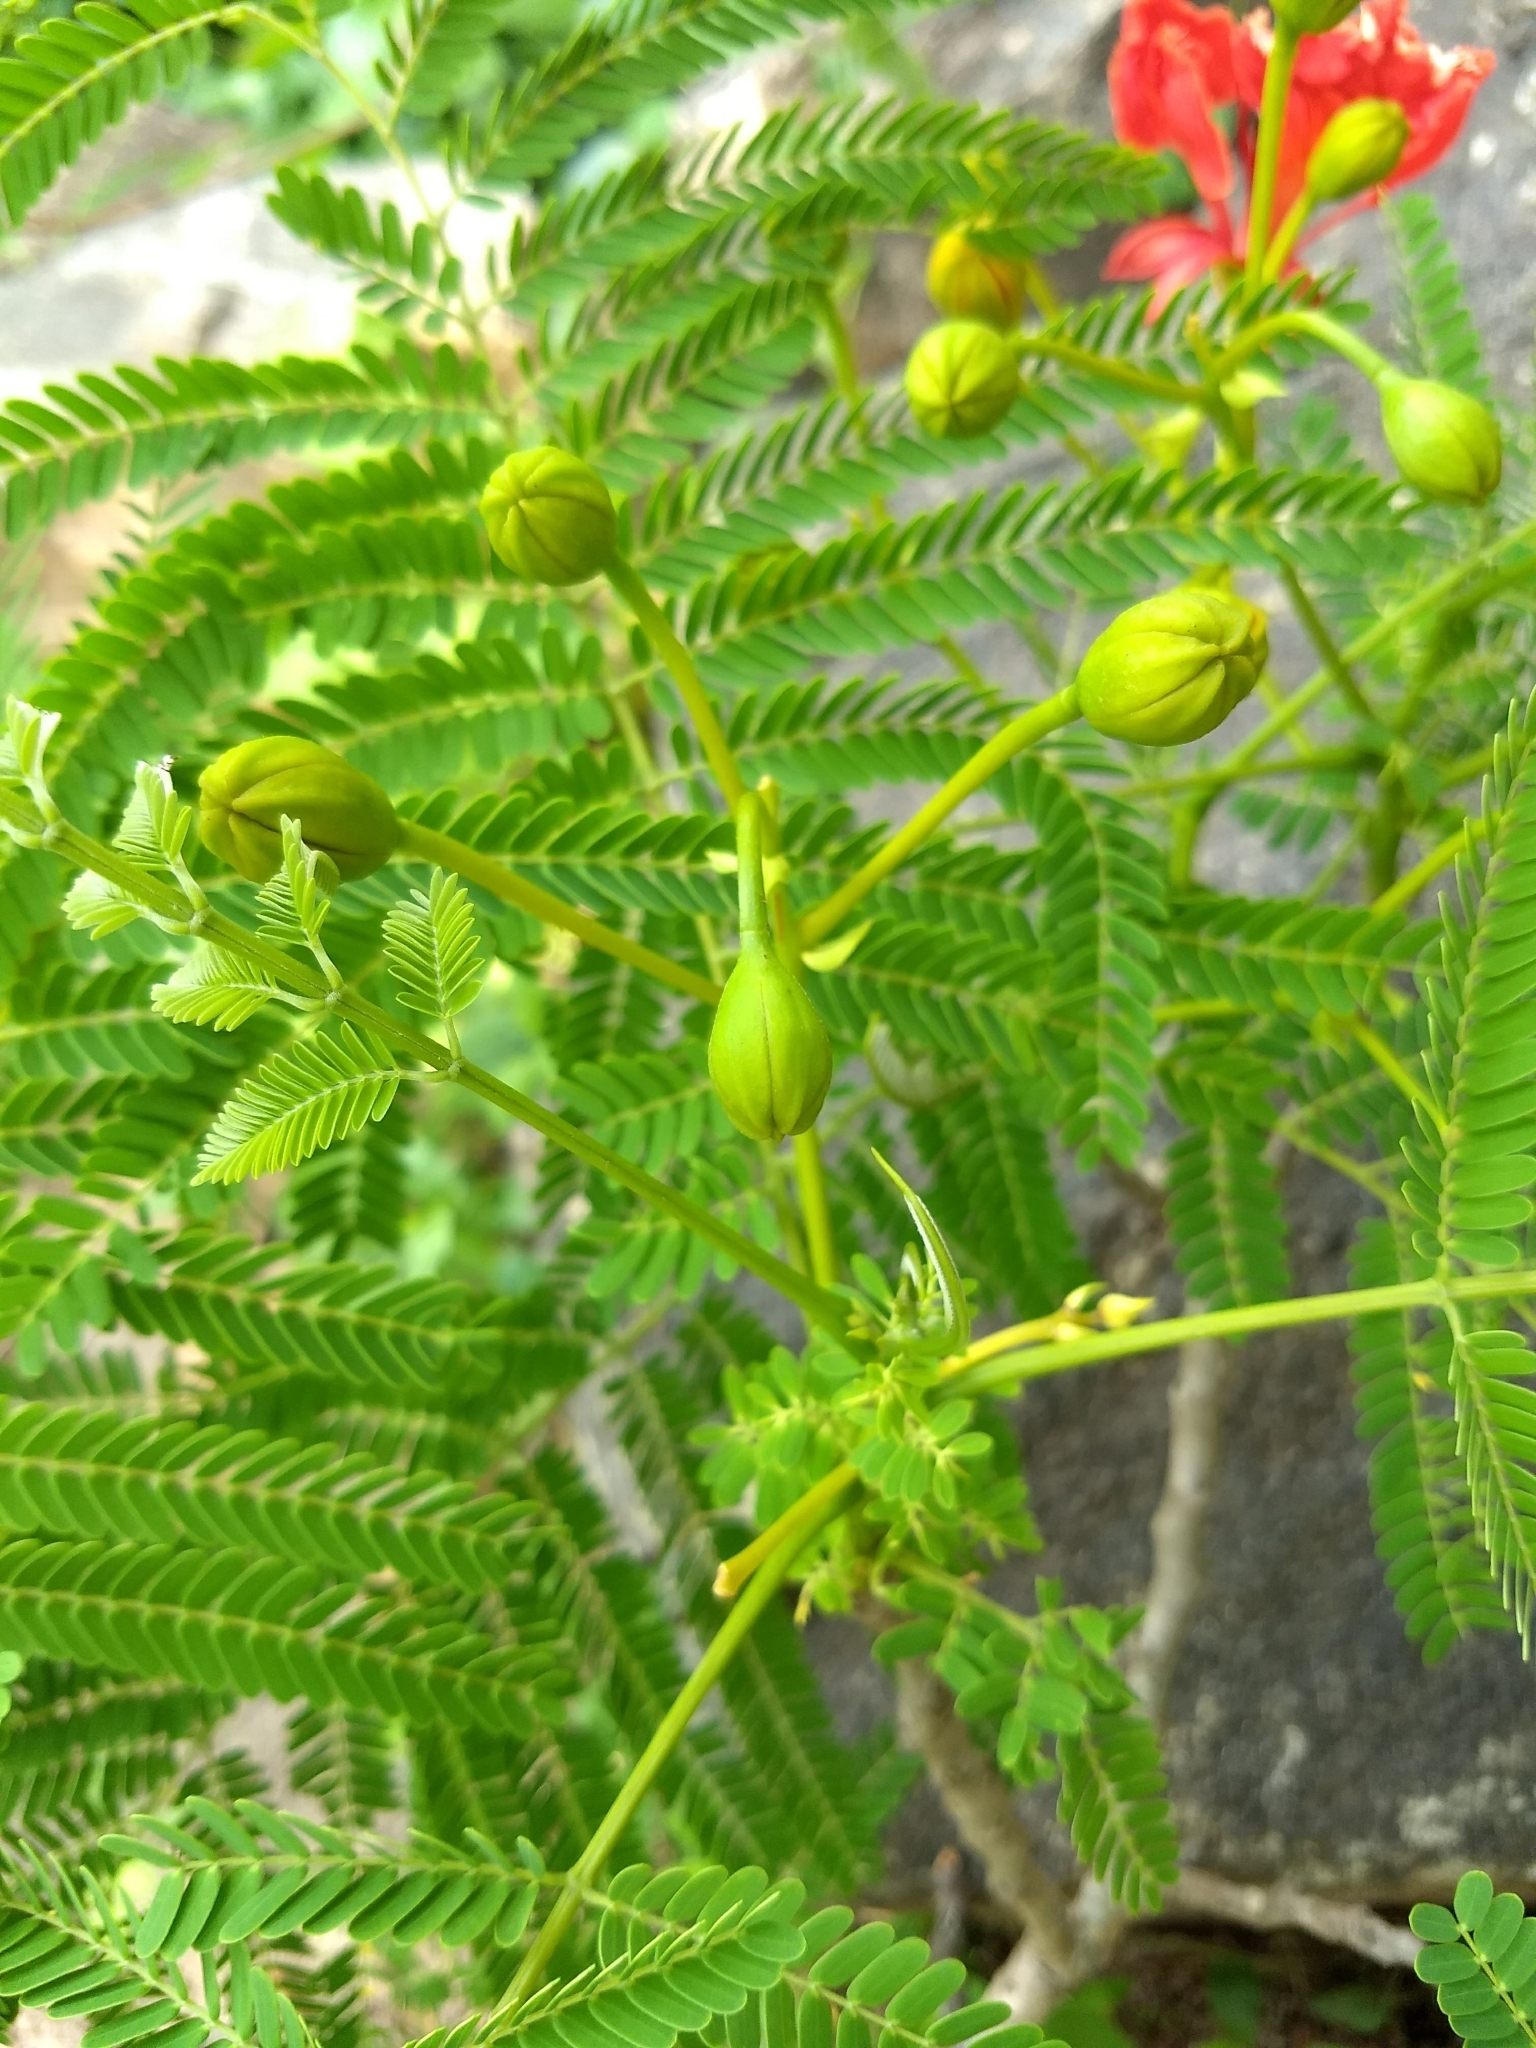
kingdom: Plantae
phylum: Tracheophyta
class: Magnoliopsida
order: Fabales
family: Fabaceae
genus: Delonix
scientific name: Delonix regia
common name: Royal poinciana
